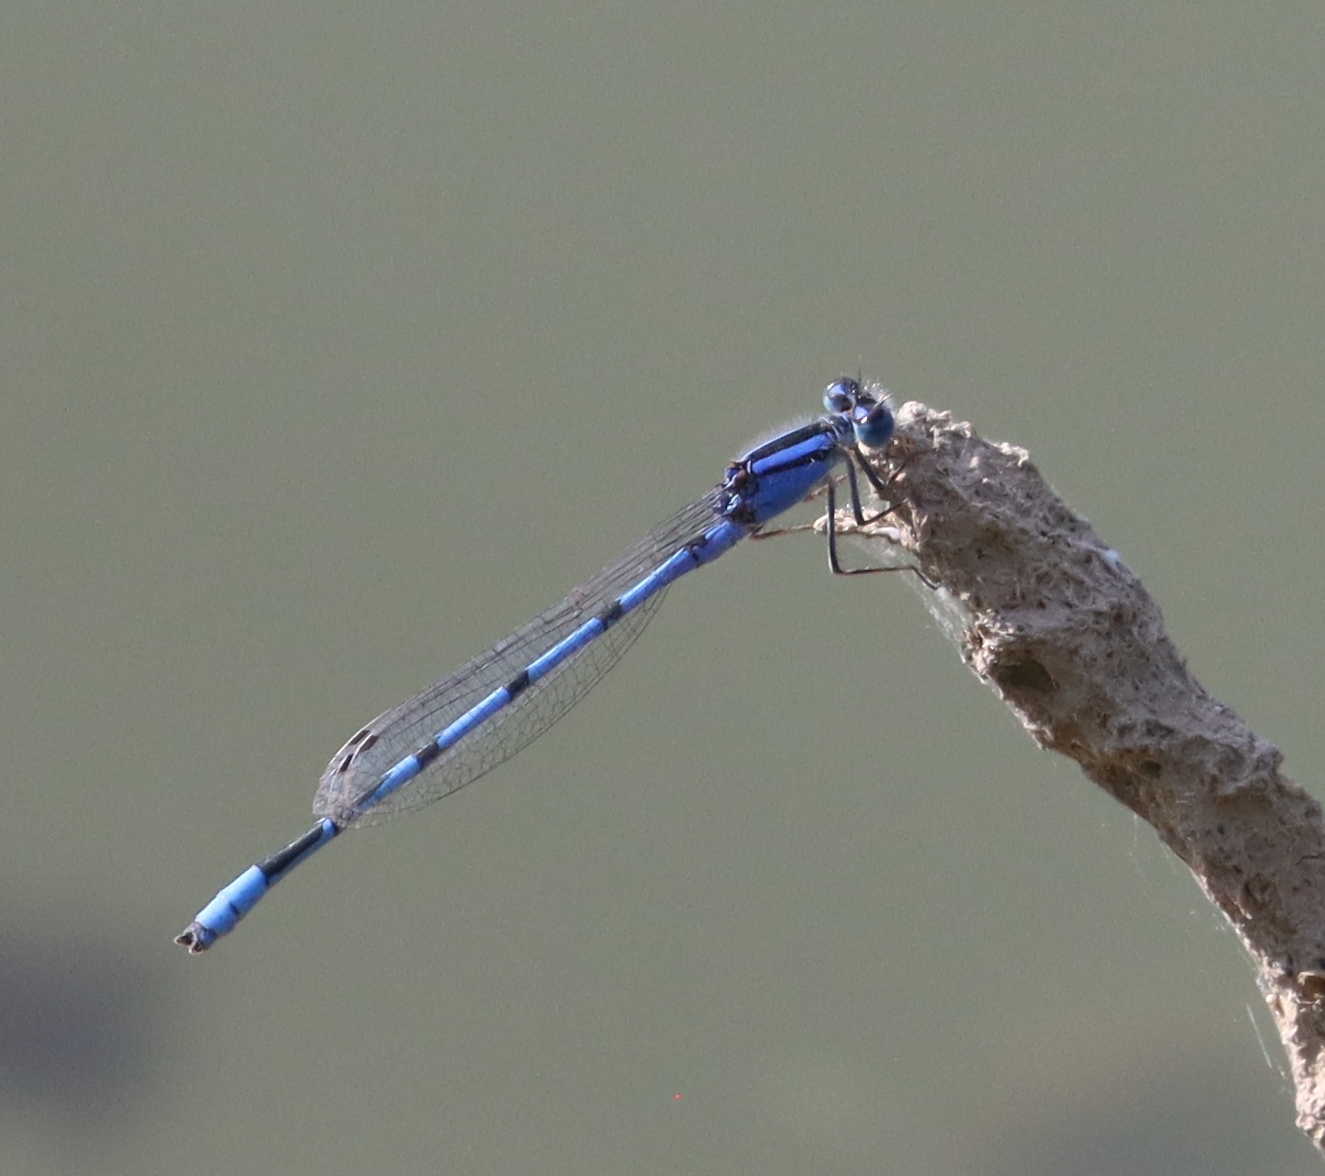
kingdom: Animalia
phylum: Arthropoda
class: Insecta
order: Odonata
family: Coenagrionidae
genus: Enallagma
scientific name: Enallagma civile
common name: Damselfly
